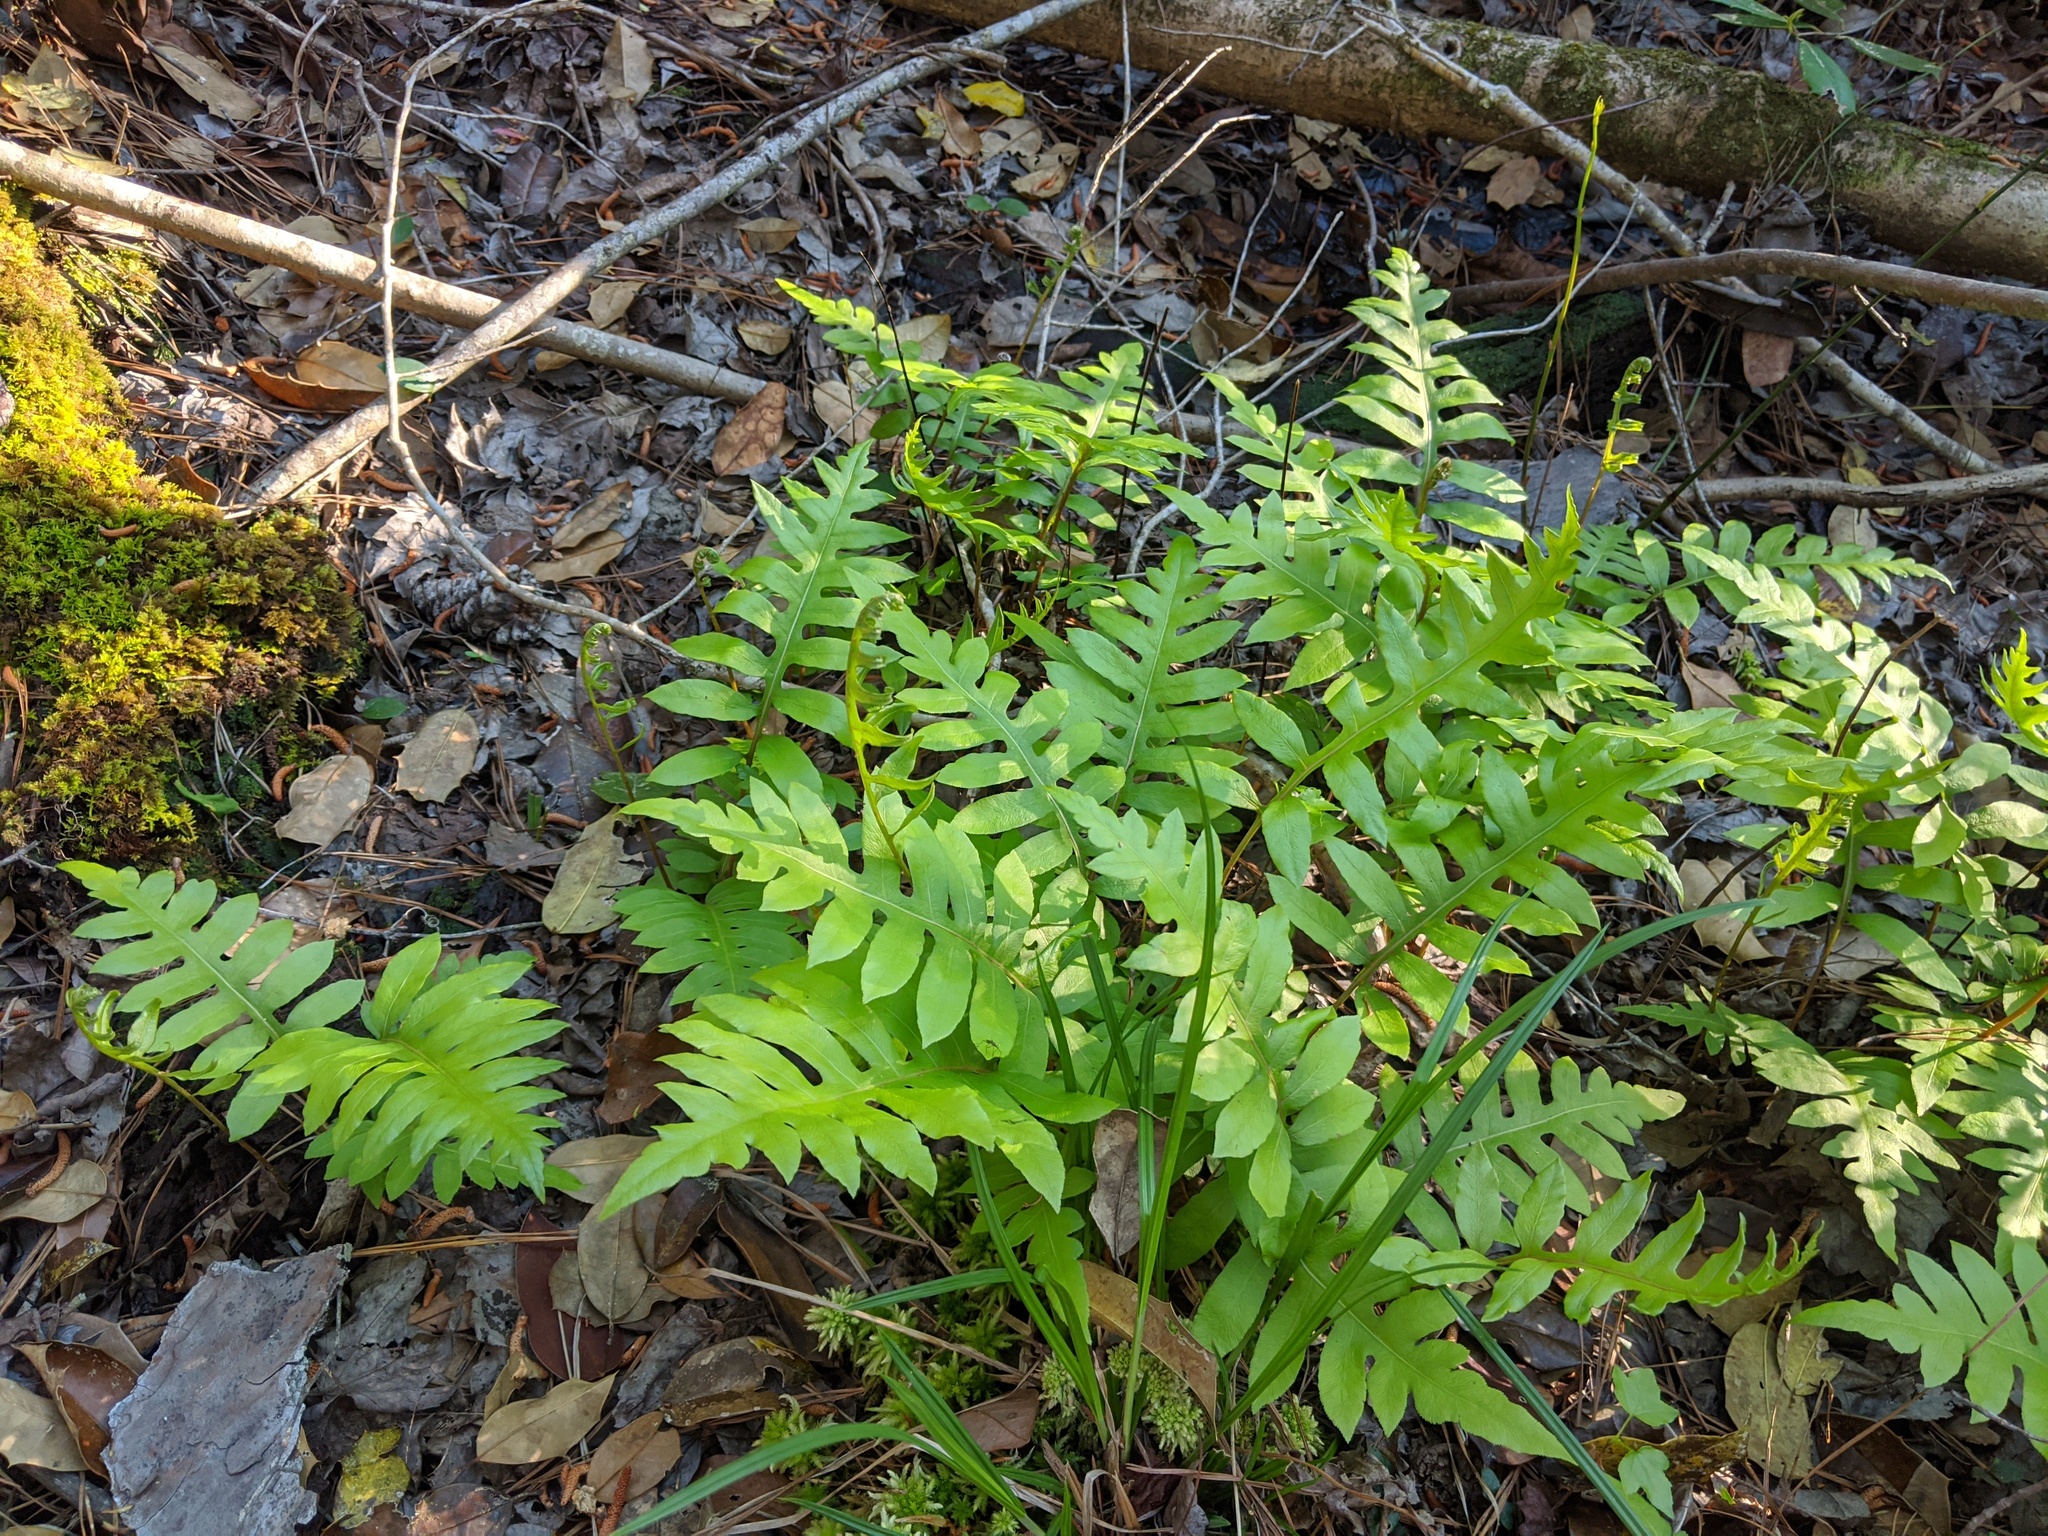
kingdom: Plantae
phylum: Tracheophyta
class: Polypodiopsida
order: Polypodiales
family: Blechnaceae
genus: Lorinseria
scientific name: Lorinseria areolata
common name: Dwarf chain fern
